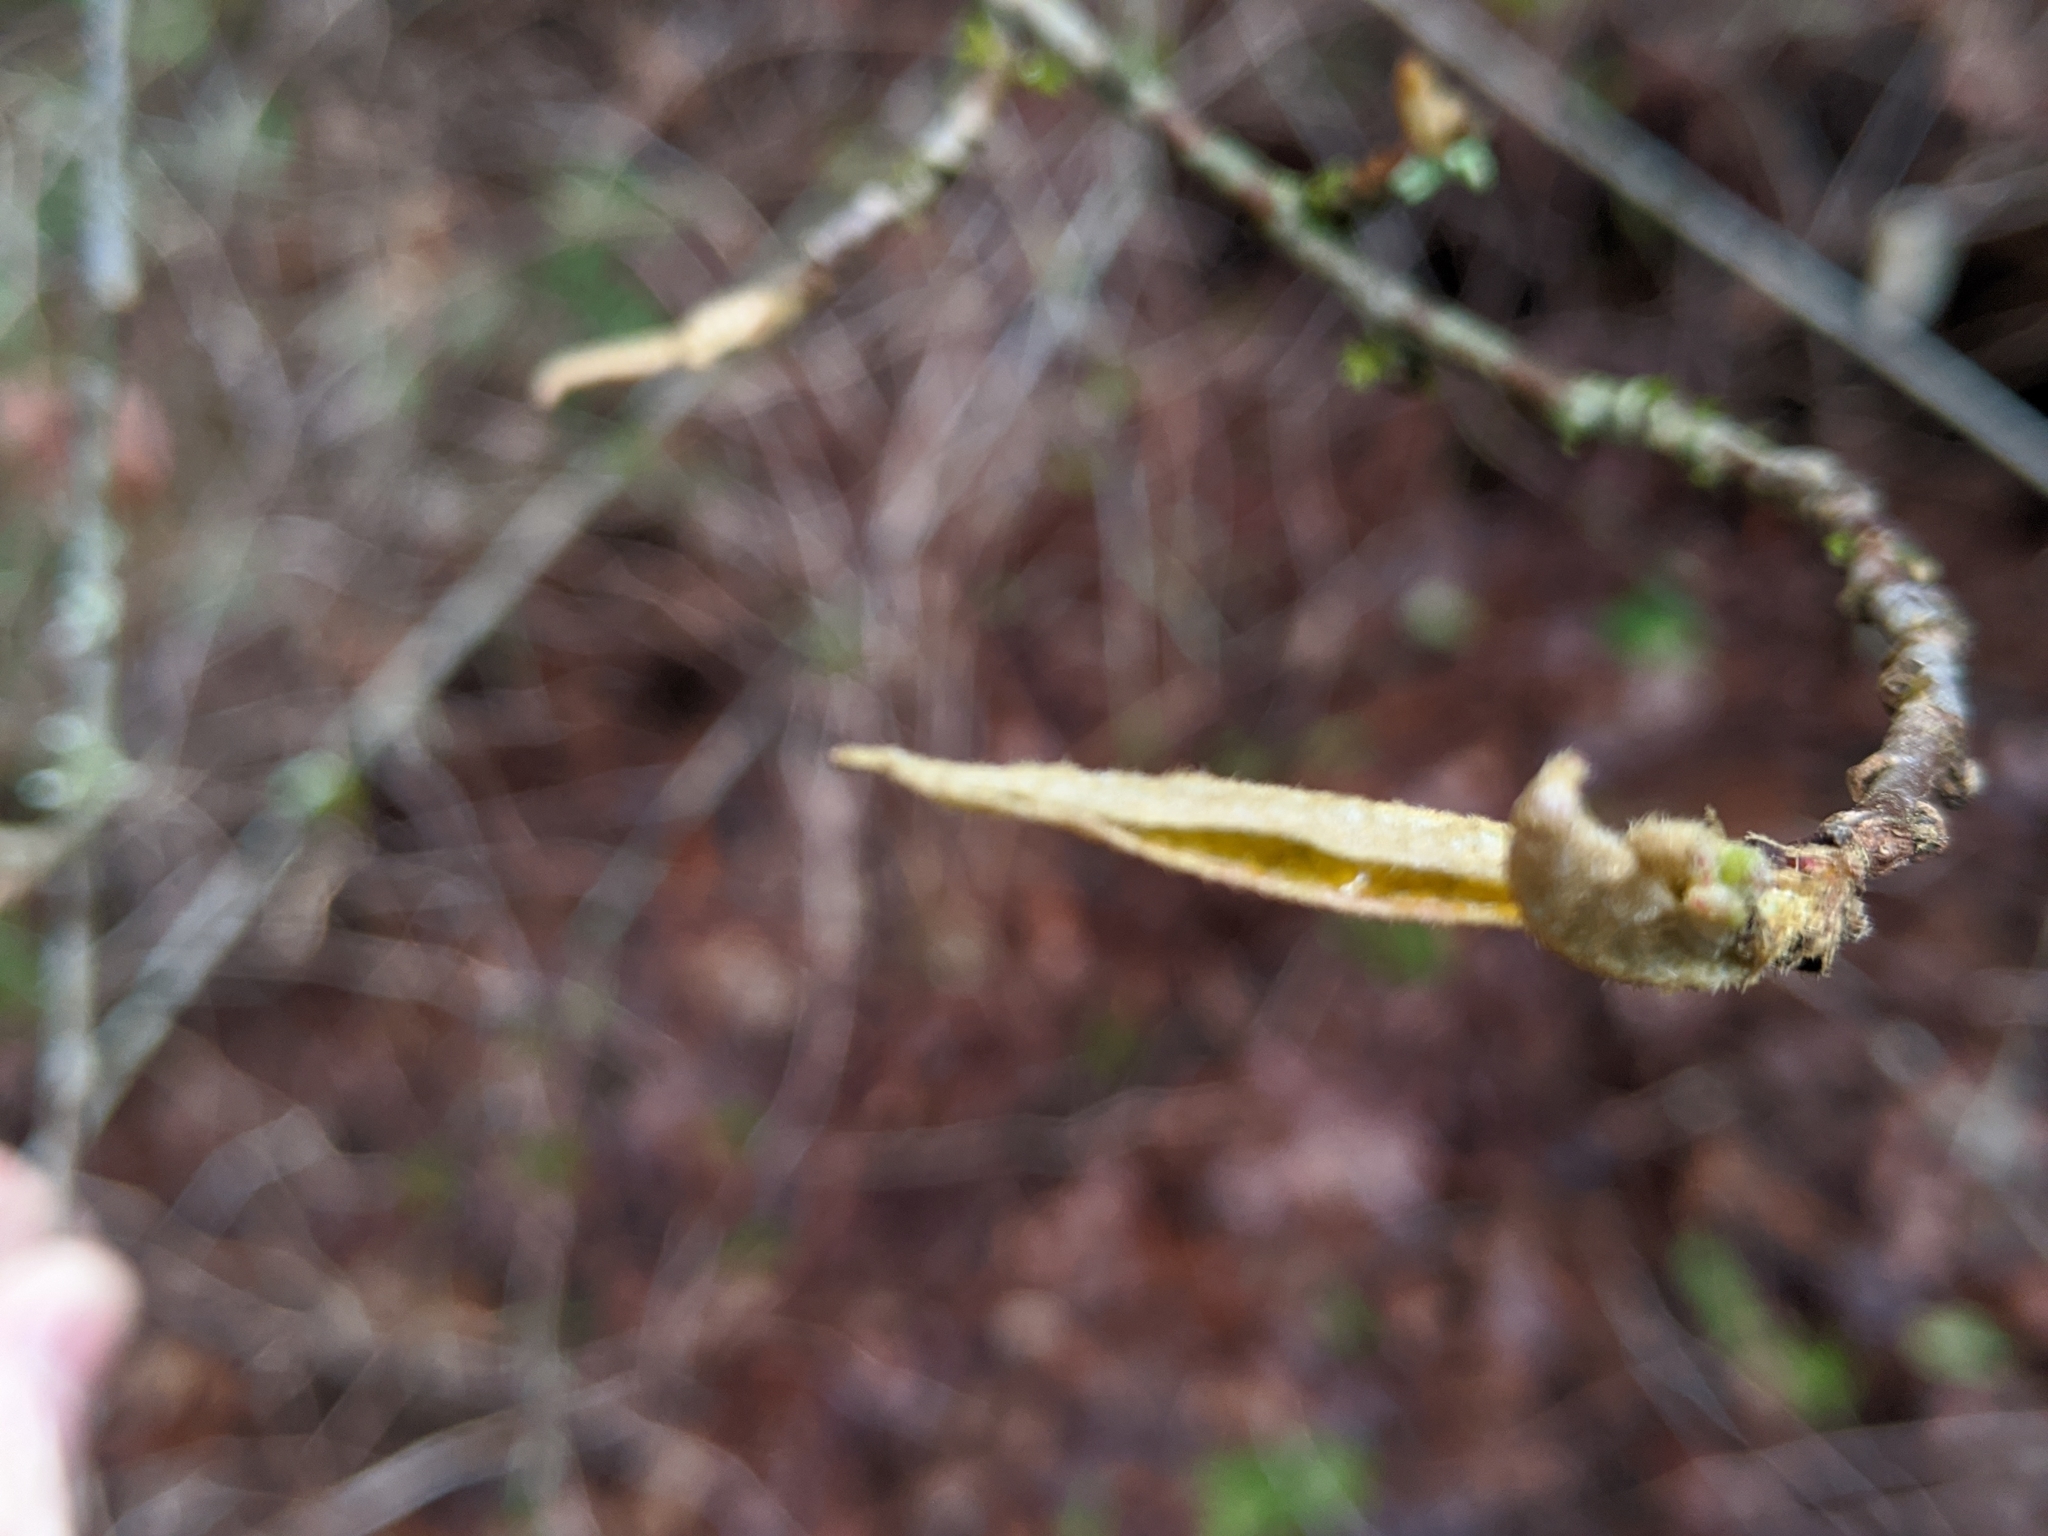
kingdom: Plantae
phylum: Tracheophyta
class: Magnoliopsida
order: Rosales
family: Rosaceae
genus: Cotoneaster
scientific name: Cotoneaster bullatus
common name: Hollyberry cotoneaster
